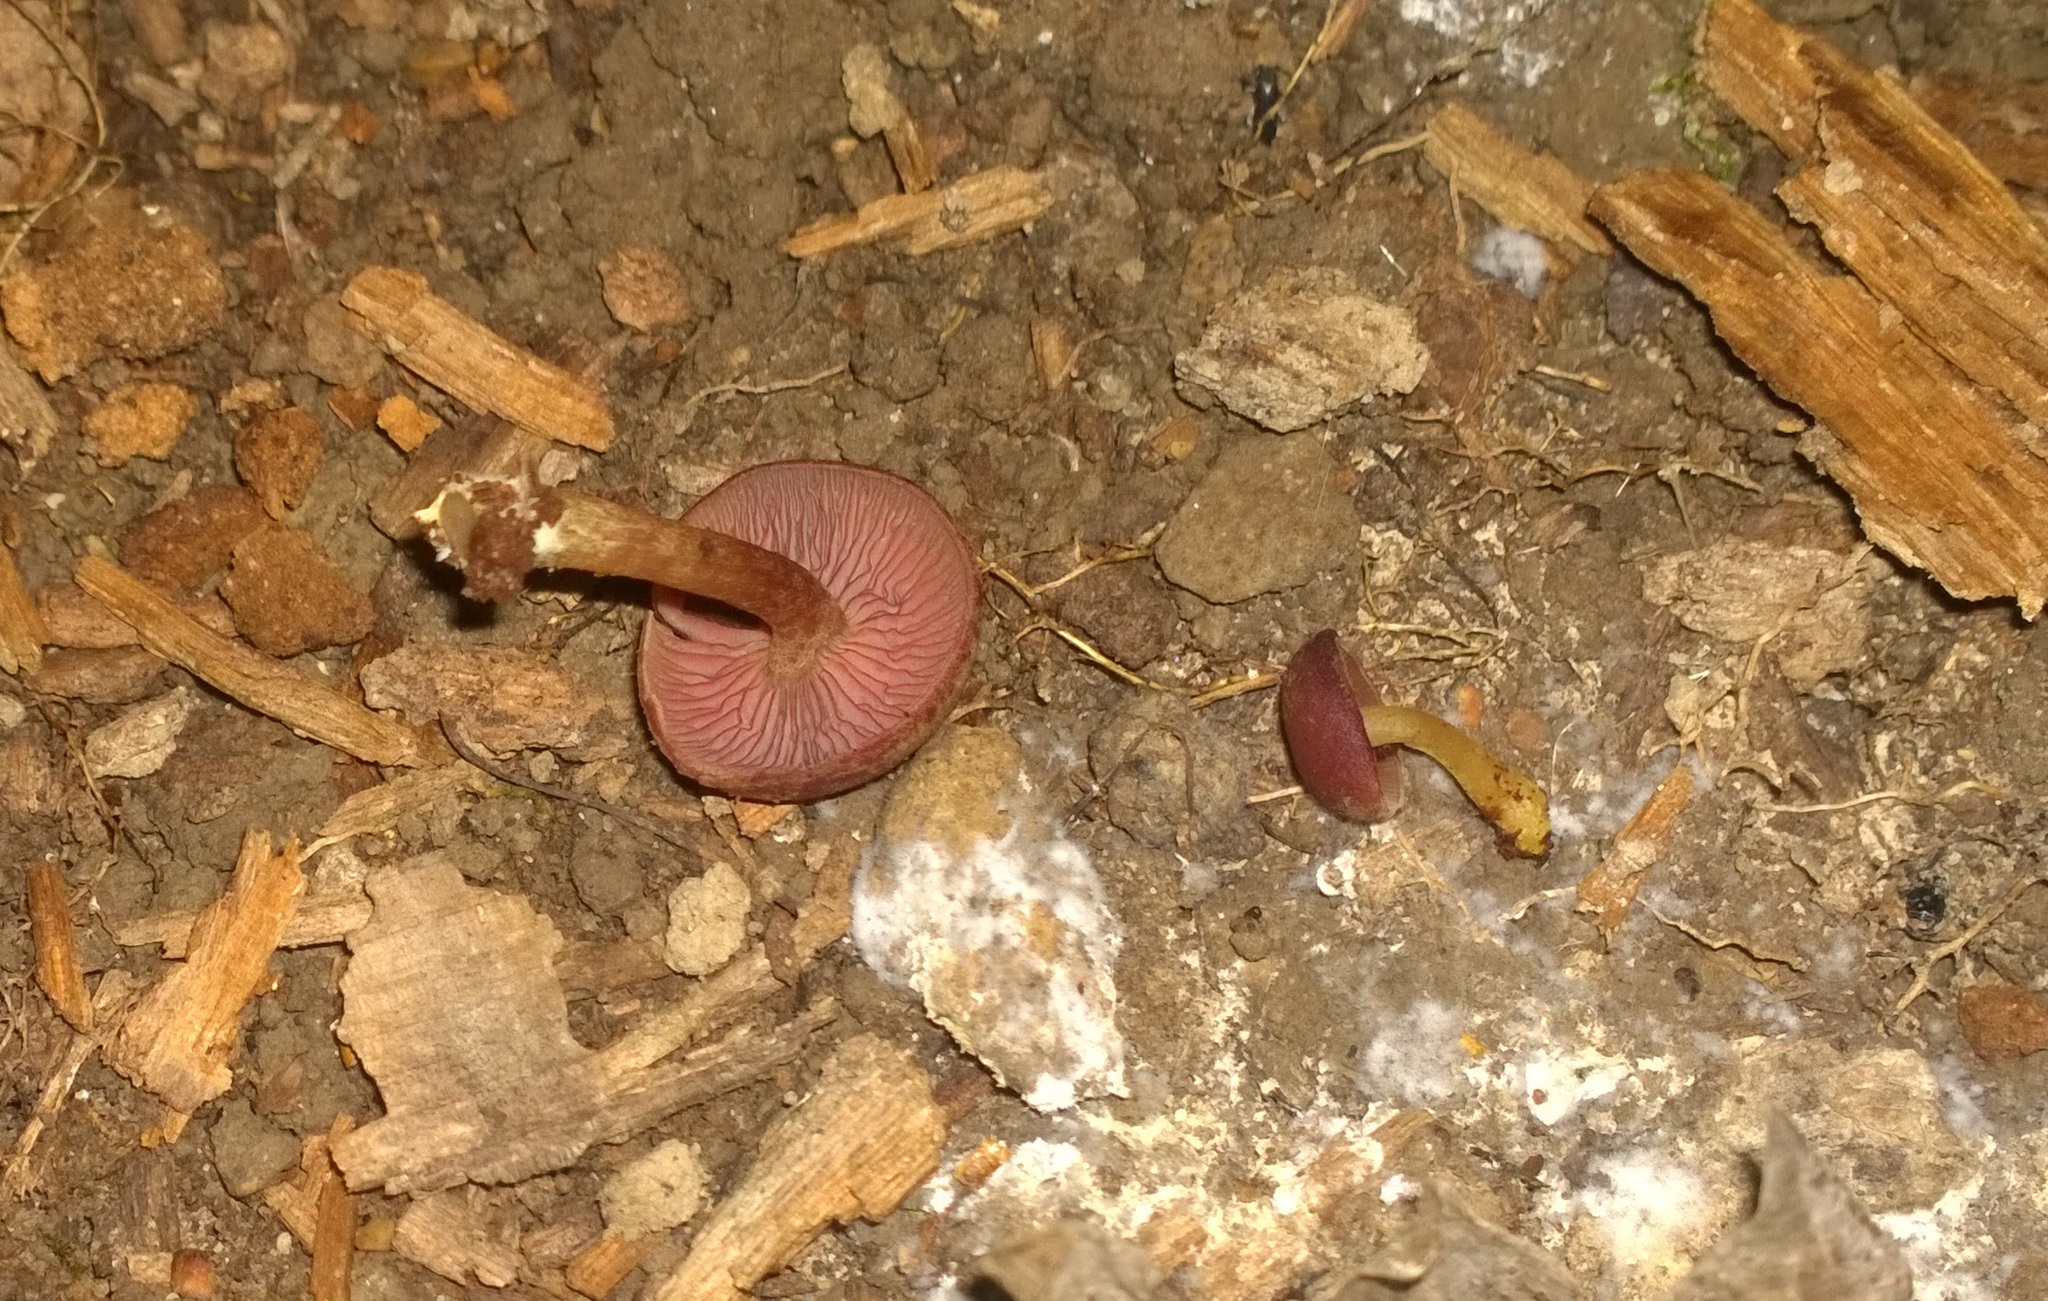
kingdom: Fungi
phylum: Basidiomycota
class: Agaricomycetes
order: Agaricales
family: Callistosporiaceae
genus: Callistosporium
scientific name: Callistosporium purpureomarginatum
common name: Purple-edged lute
